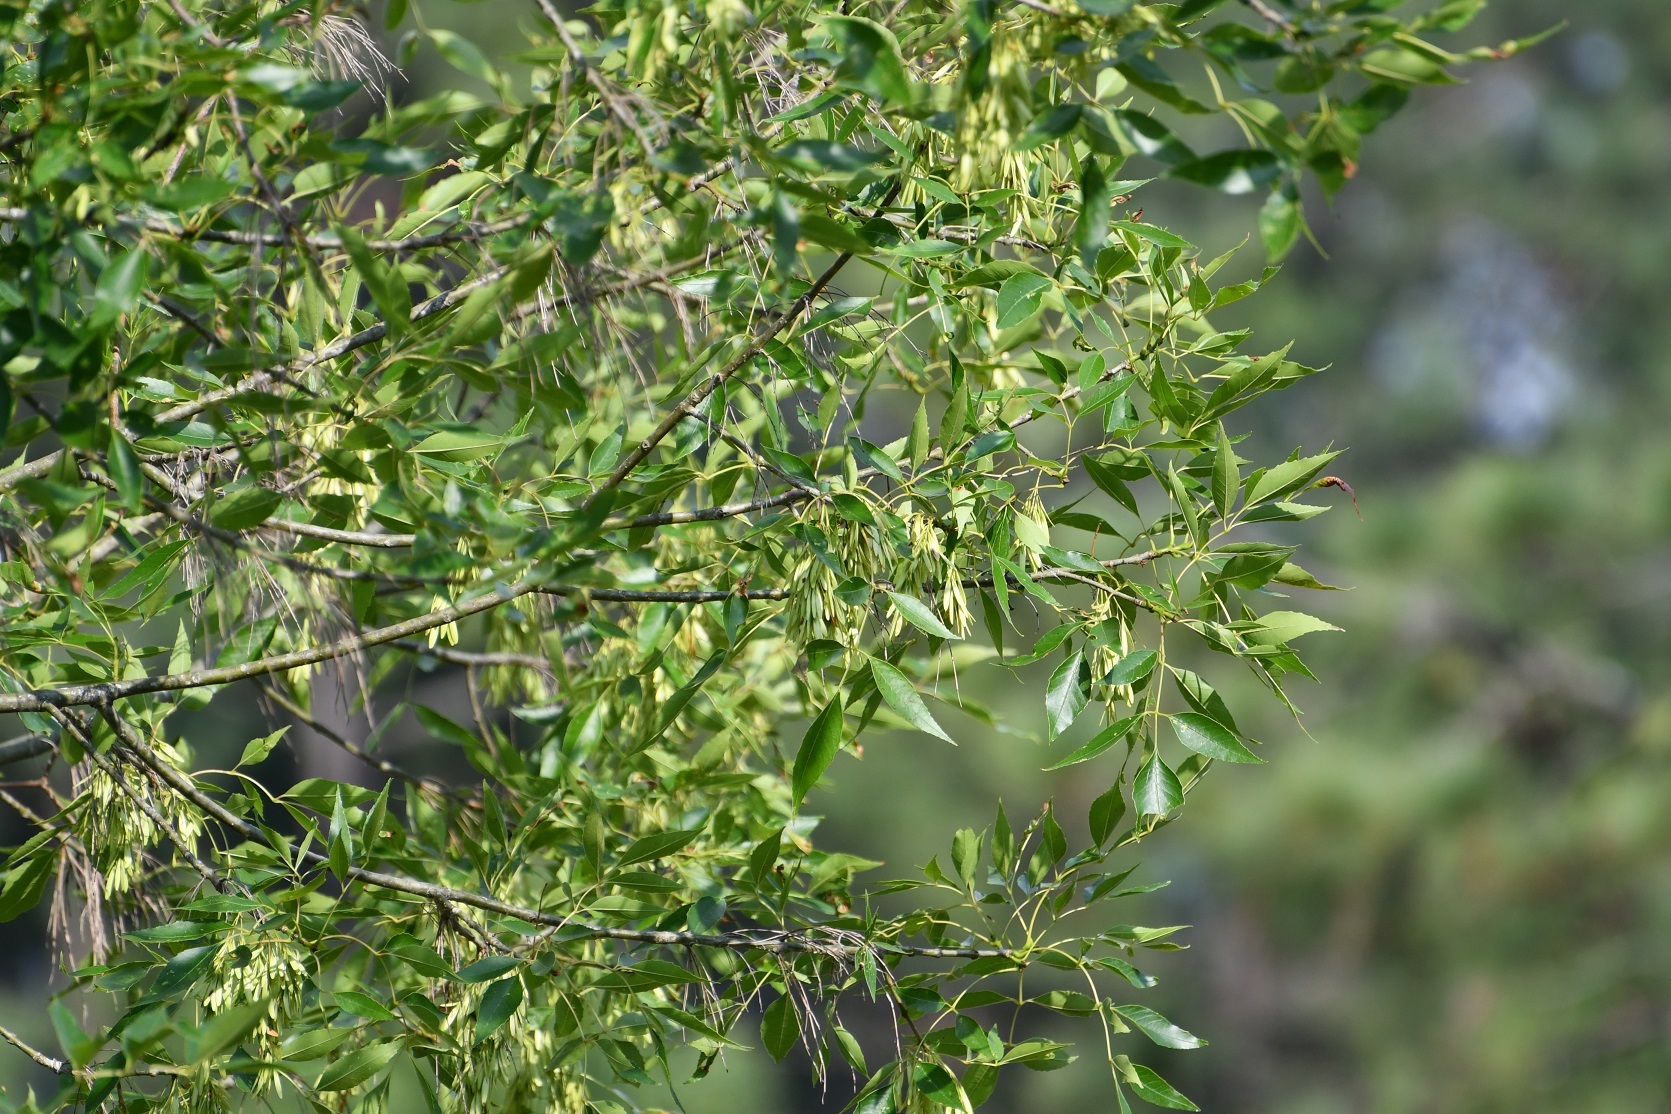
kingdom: Plantae
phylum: Tracheophyta
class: Magnoliopsida
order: Lamiales
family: Oleaceae
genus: Fraxinus
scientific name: Fraxinus uhdei
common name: Shamel ash
